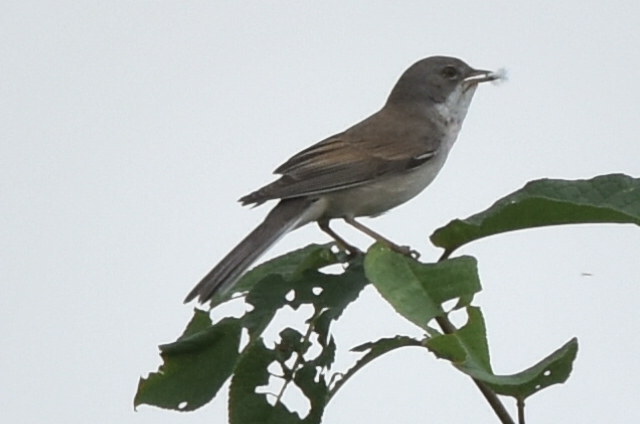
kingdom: Animalia
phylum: Chordata
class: Aves
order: Passeriformes
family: Sylviidae
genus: Sylvia
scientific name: Sylvia communis
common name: Common whitethroat
